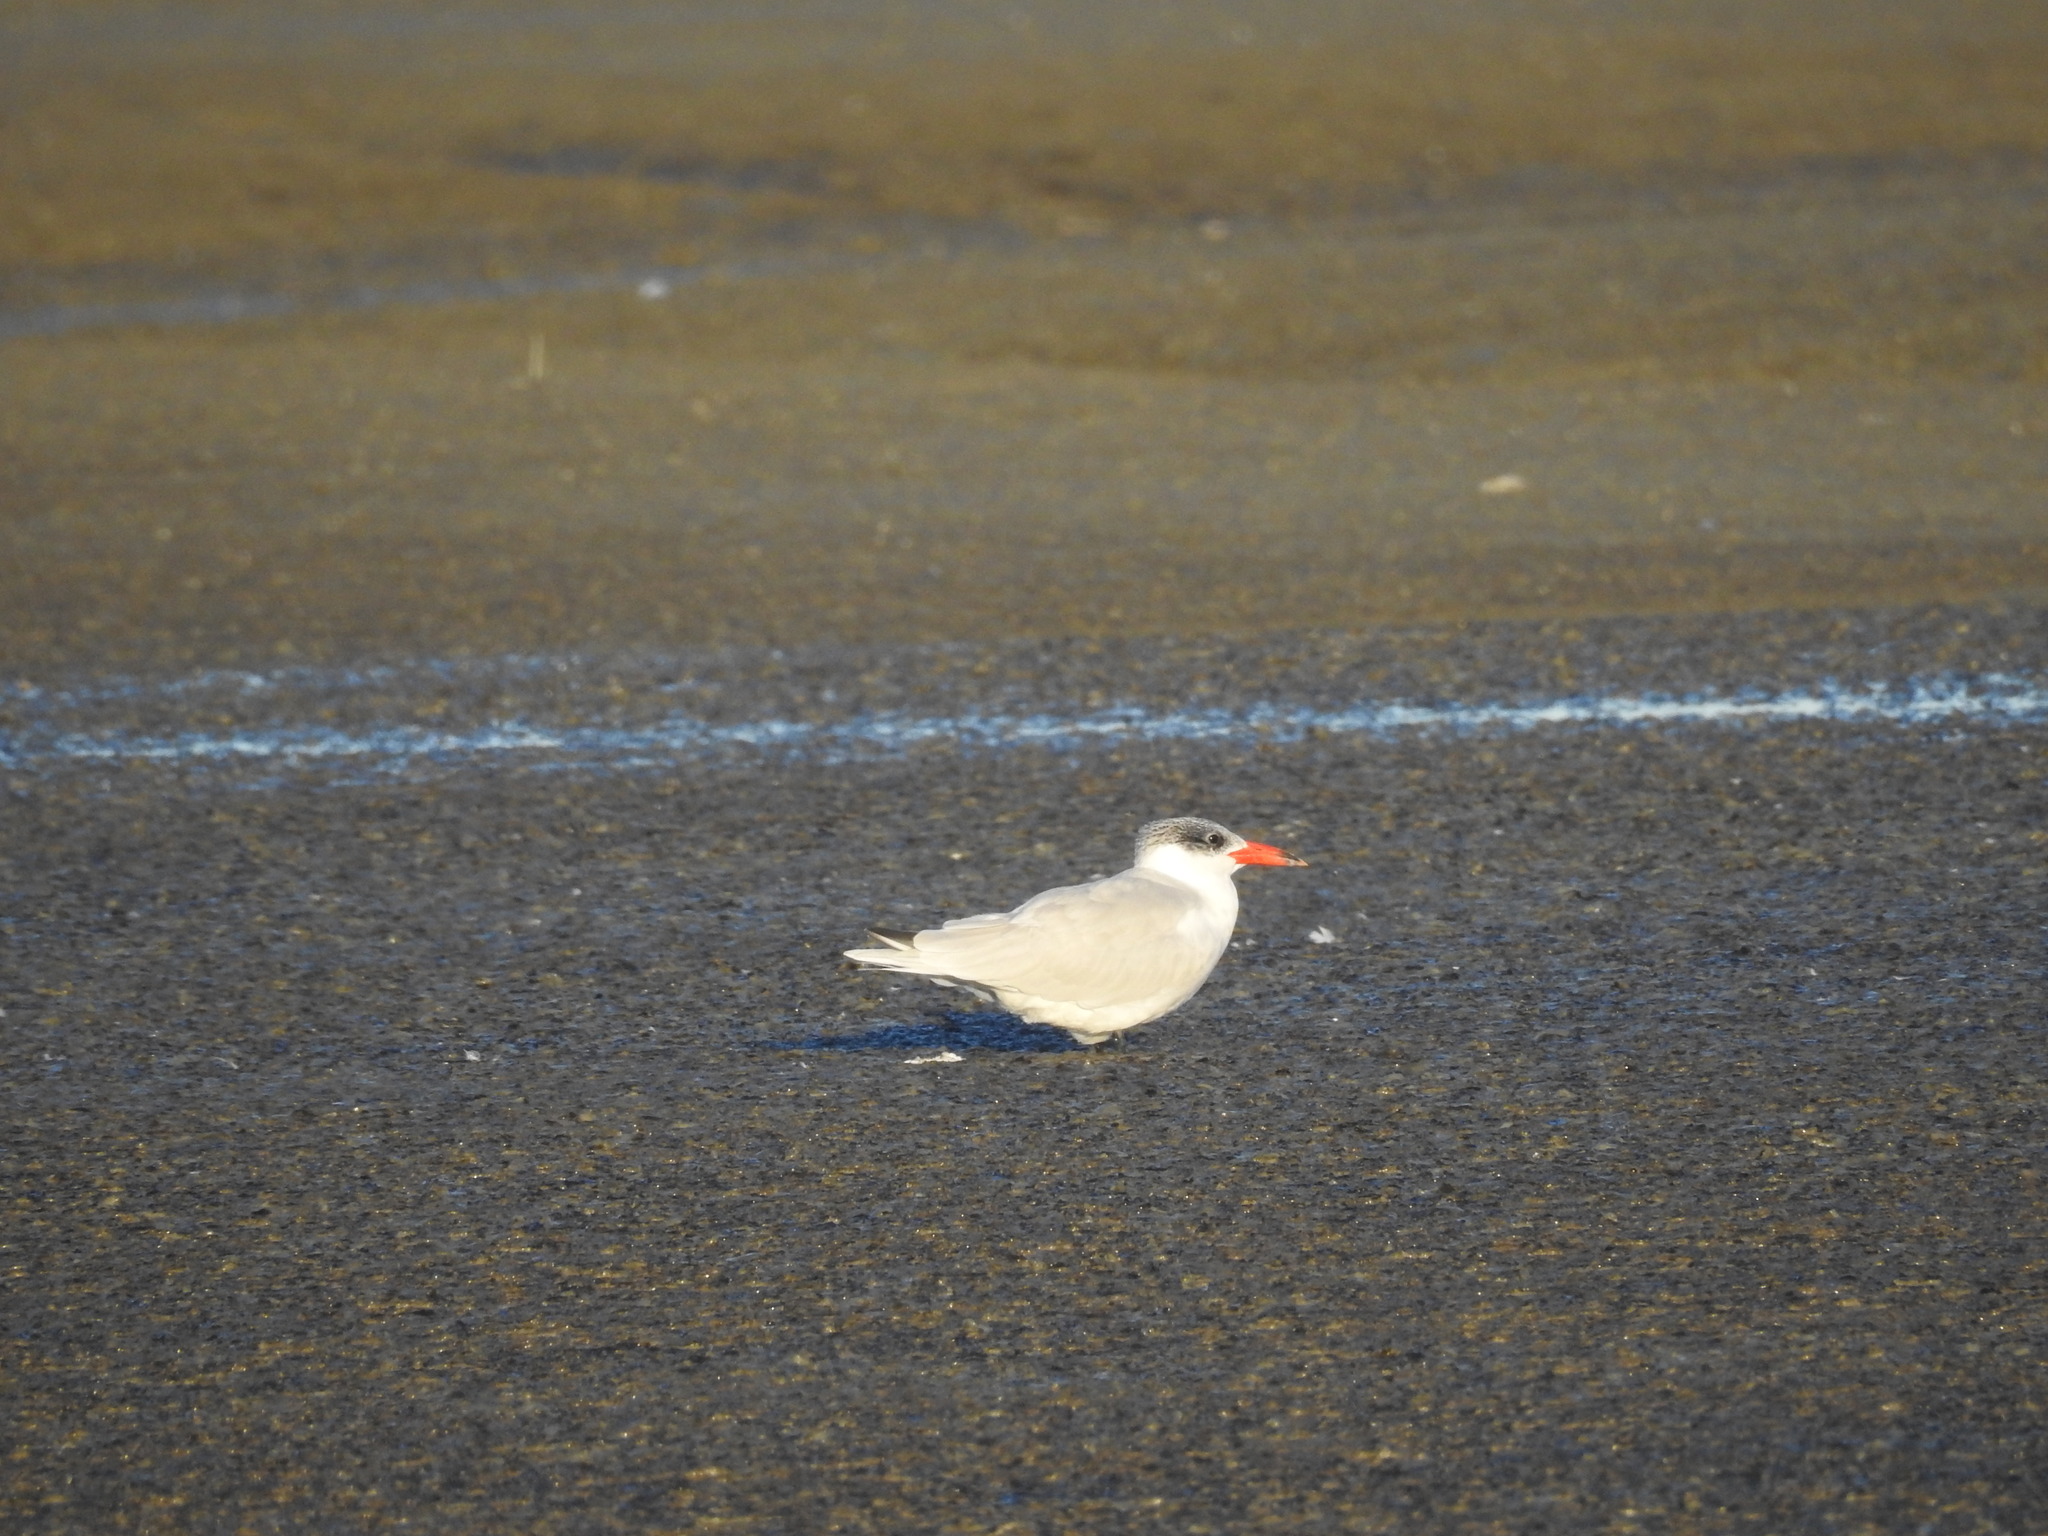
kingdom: Animalia
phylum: Chordata
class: Aves
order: Charadriiformes
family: Laridae
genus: Hydroprogne
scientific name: Hydroprogne caspia
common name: Caspian tern
